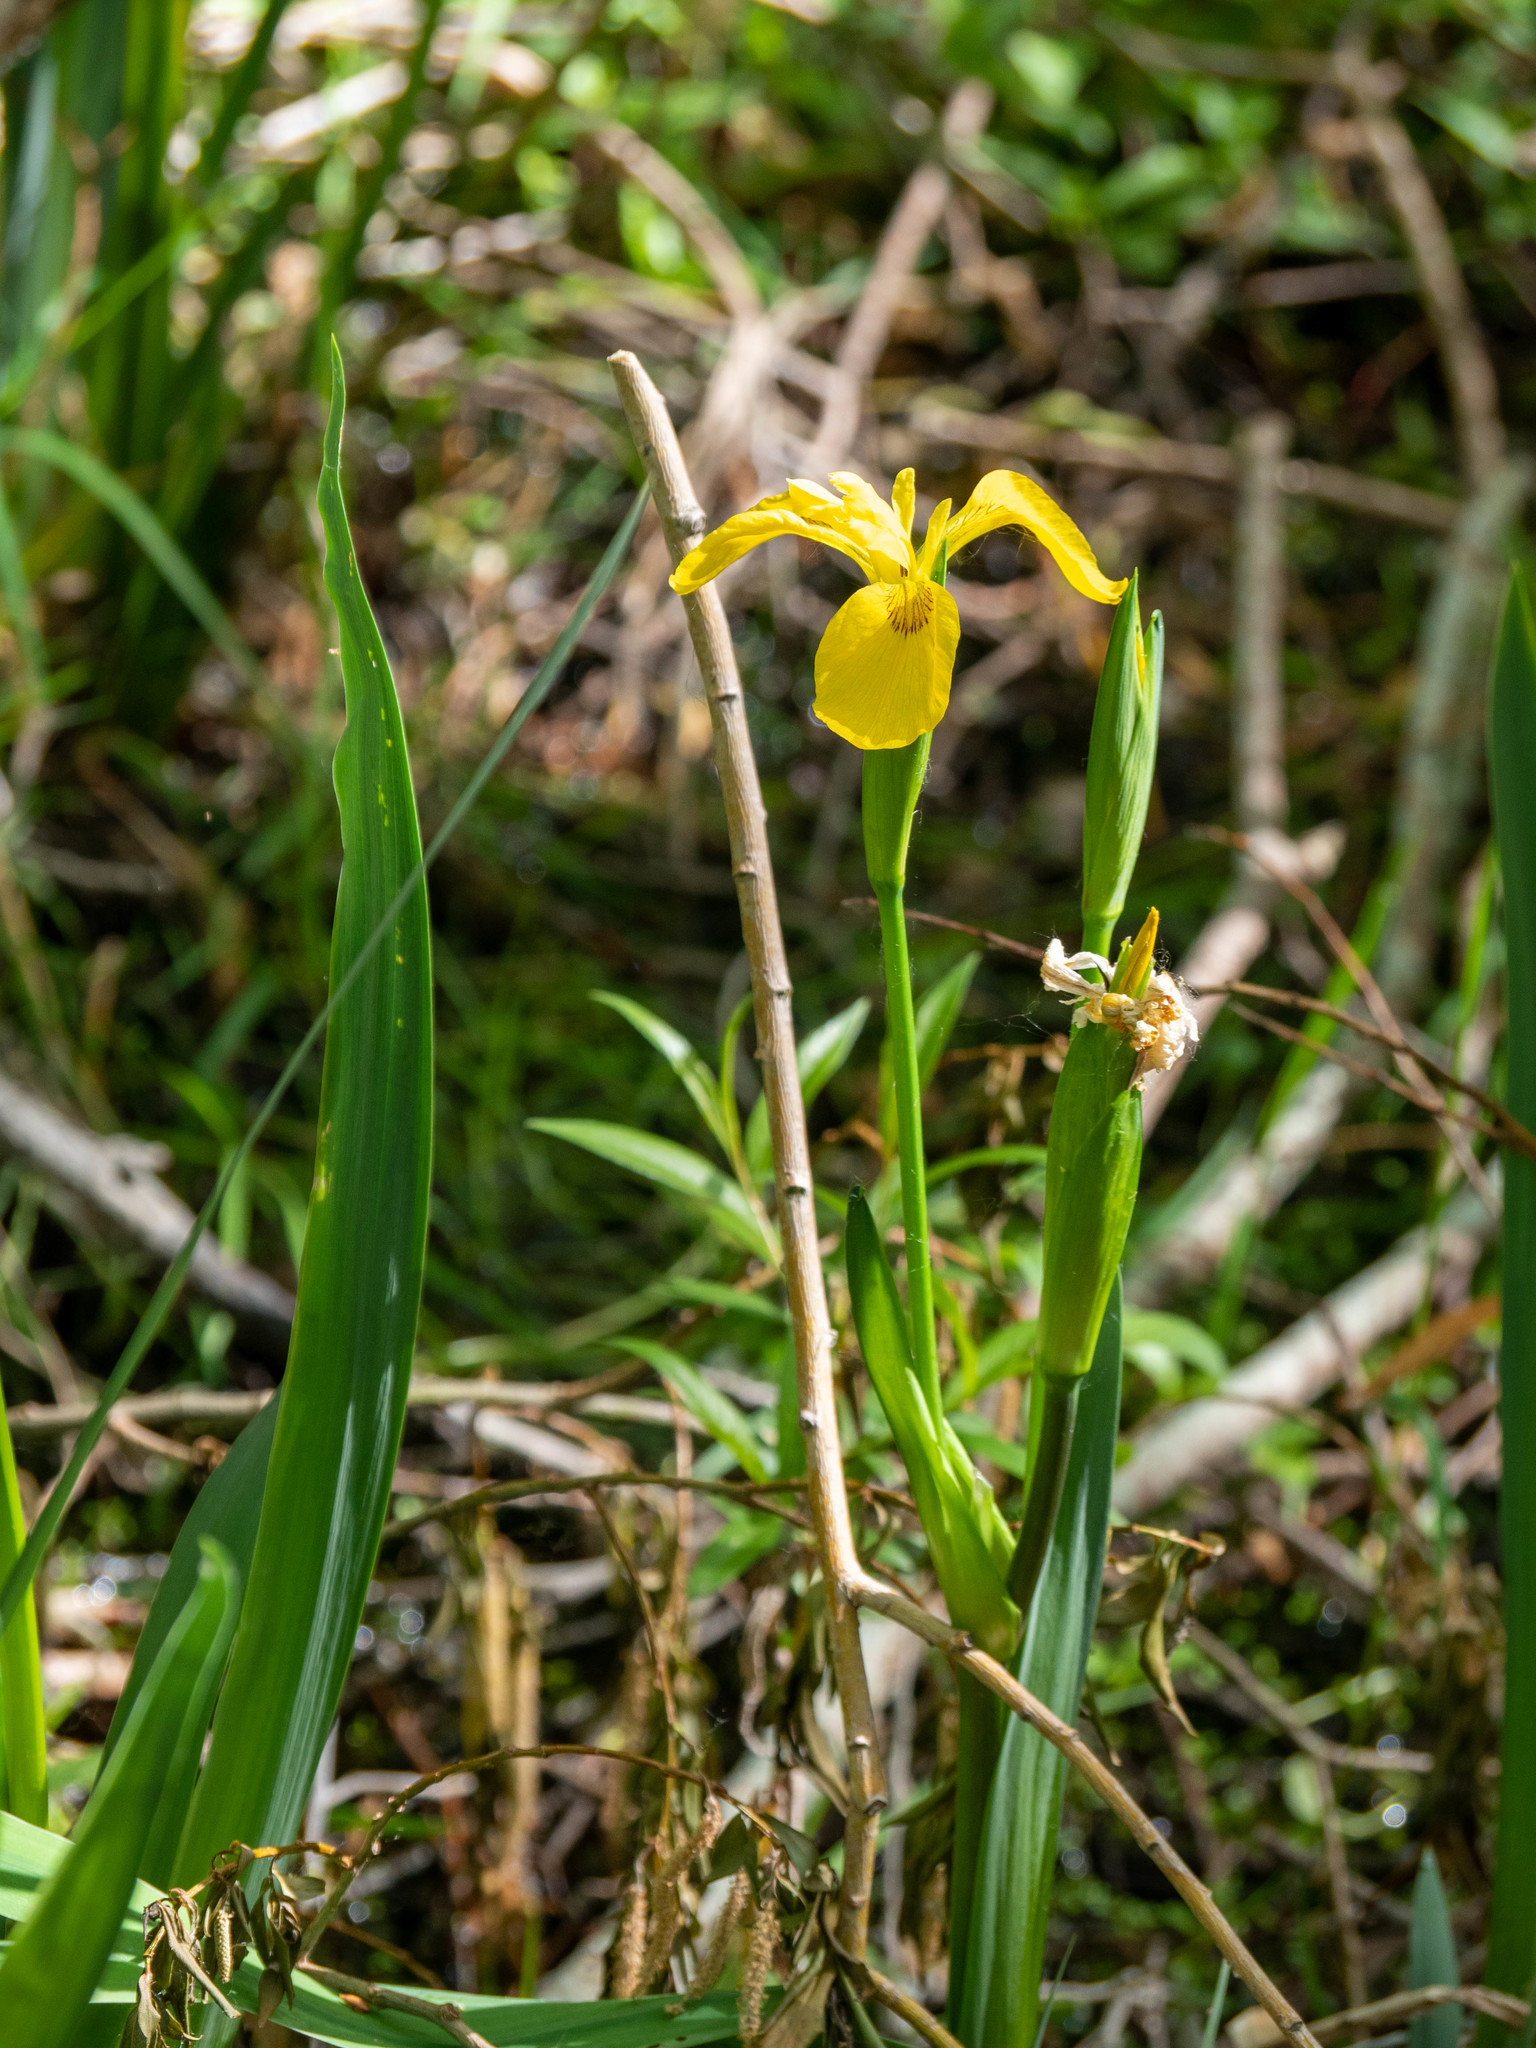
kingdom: Plantae
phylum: Tracheophyta
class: Liliopsida
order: Asparagales
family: Iridaceae
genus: Iris
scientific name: Iris pseudacorus
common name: Yellow flag
